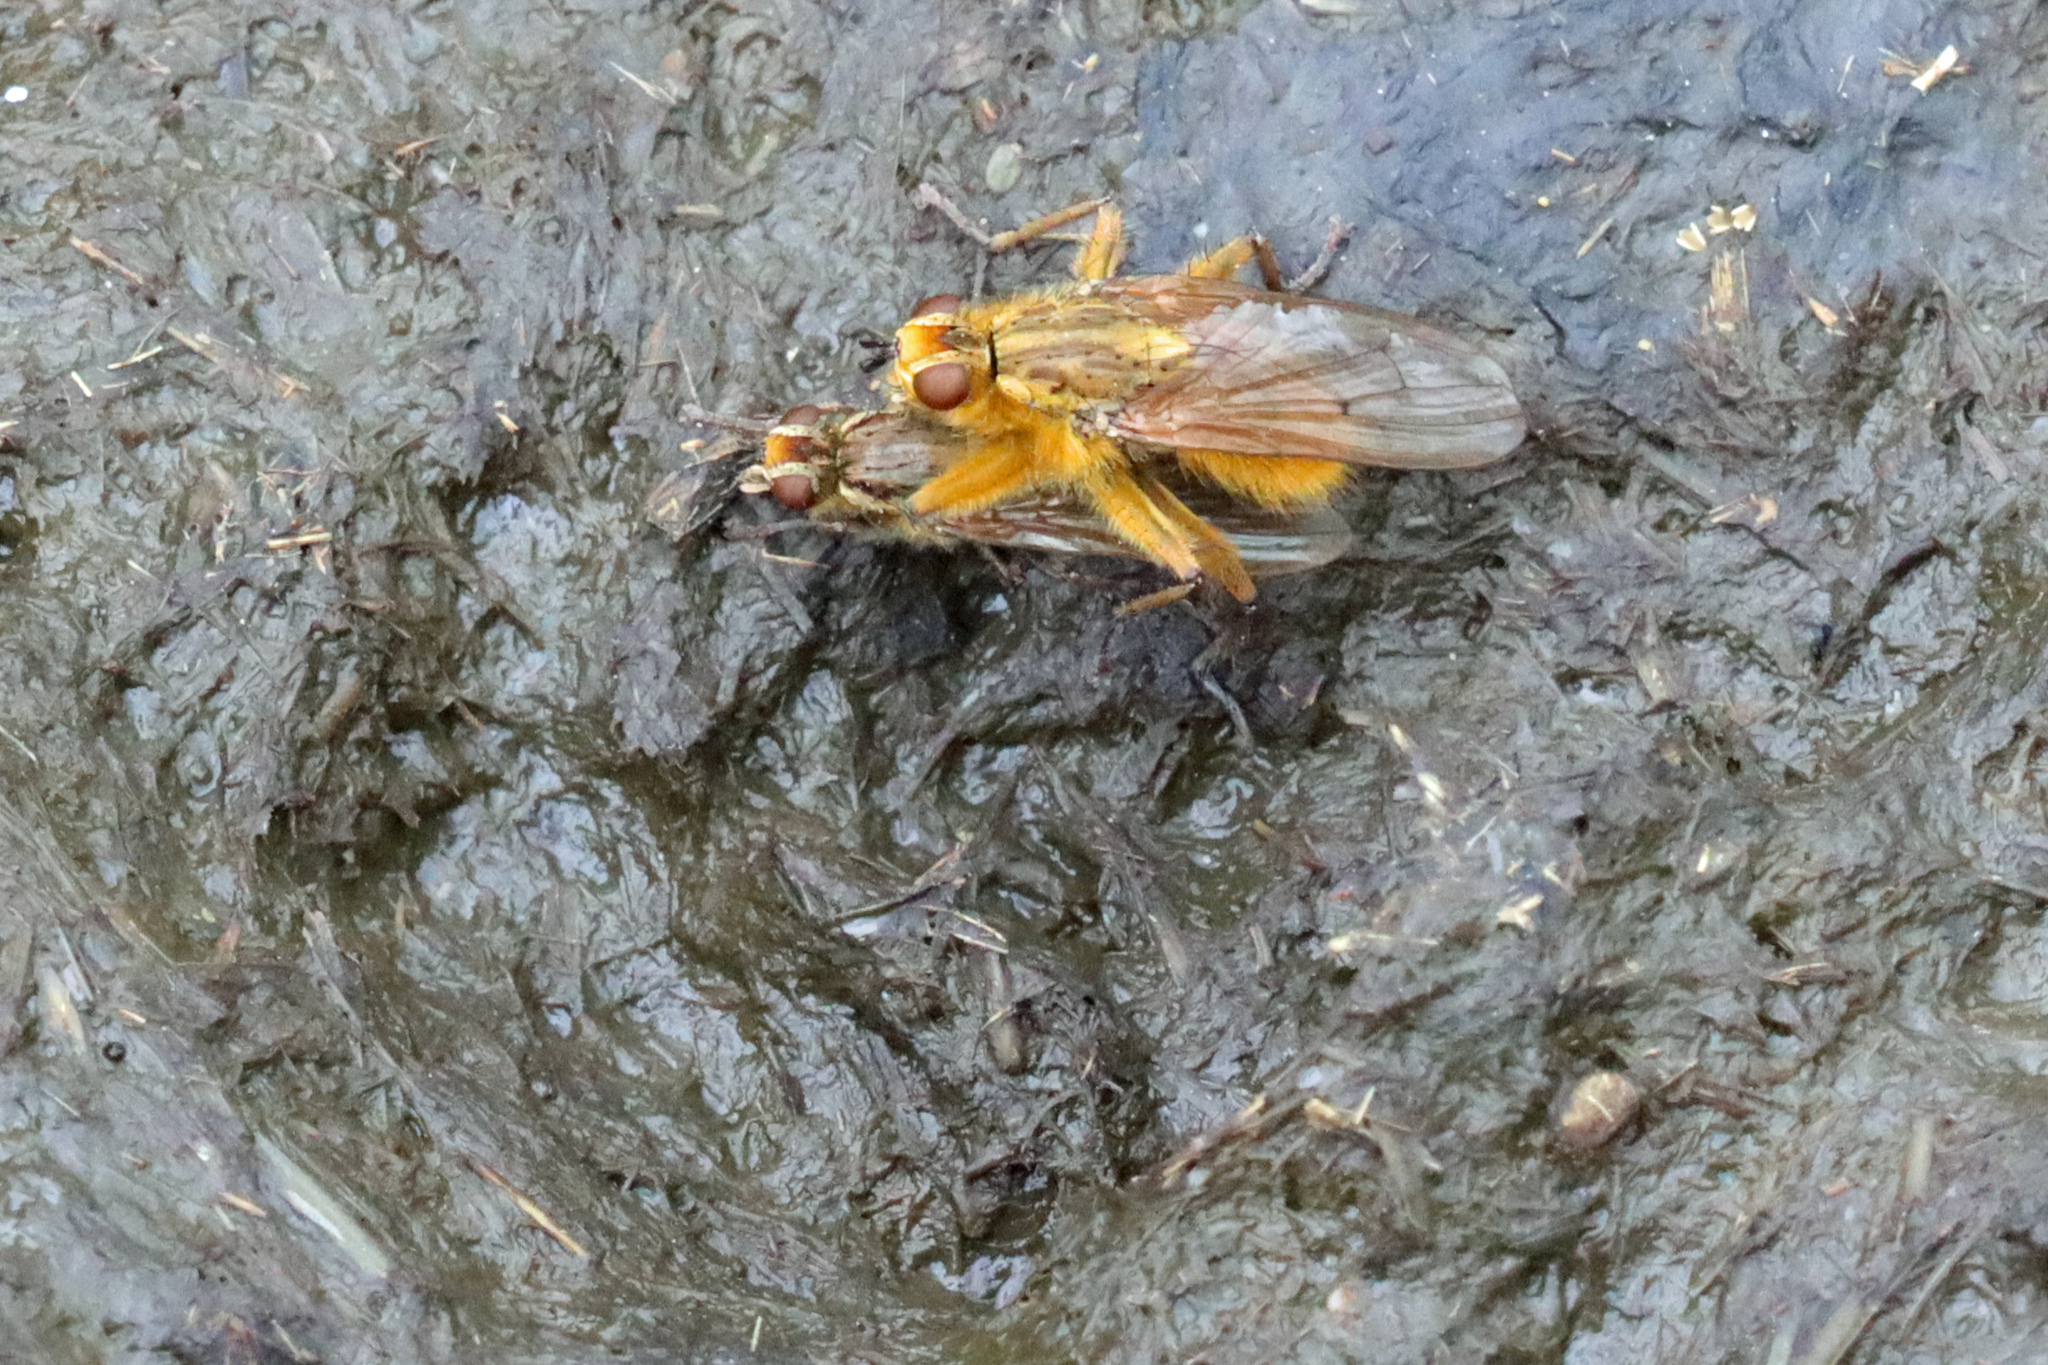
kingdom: Animalia
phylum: Arthropoda
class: Insecta
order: Diptera
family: Scathophagidae
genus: Scathophaga
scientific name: Scathophaga stercoraria
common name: Yellow dung fly
